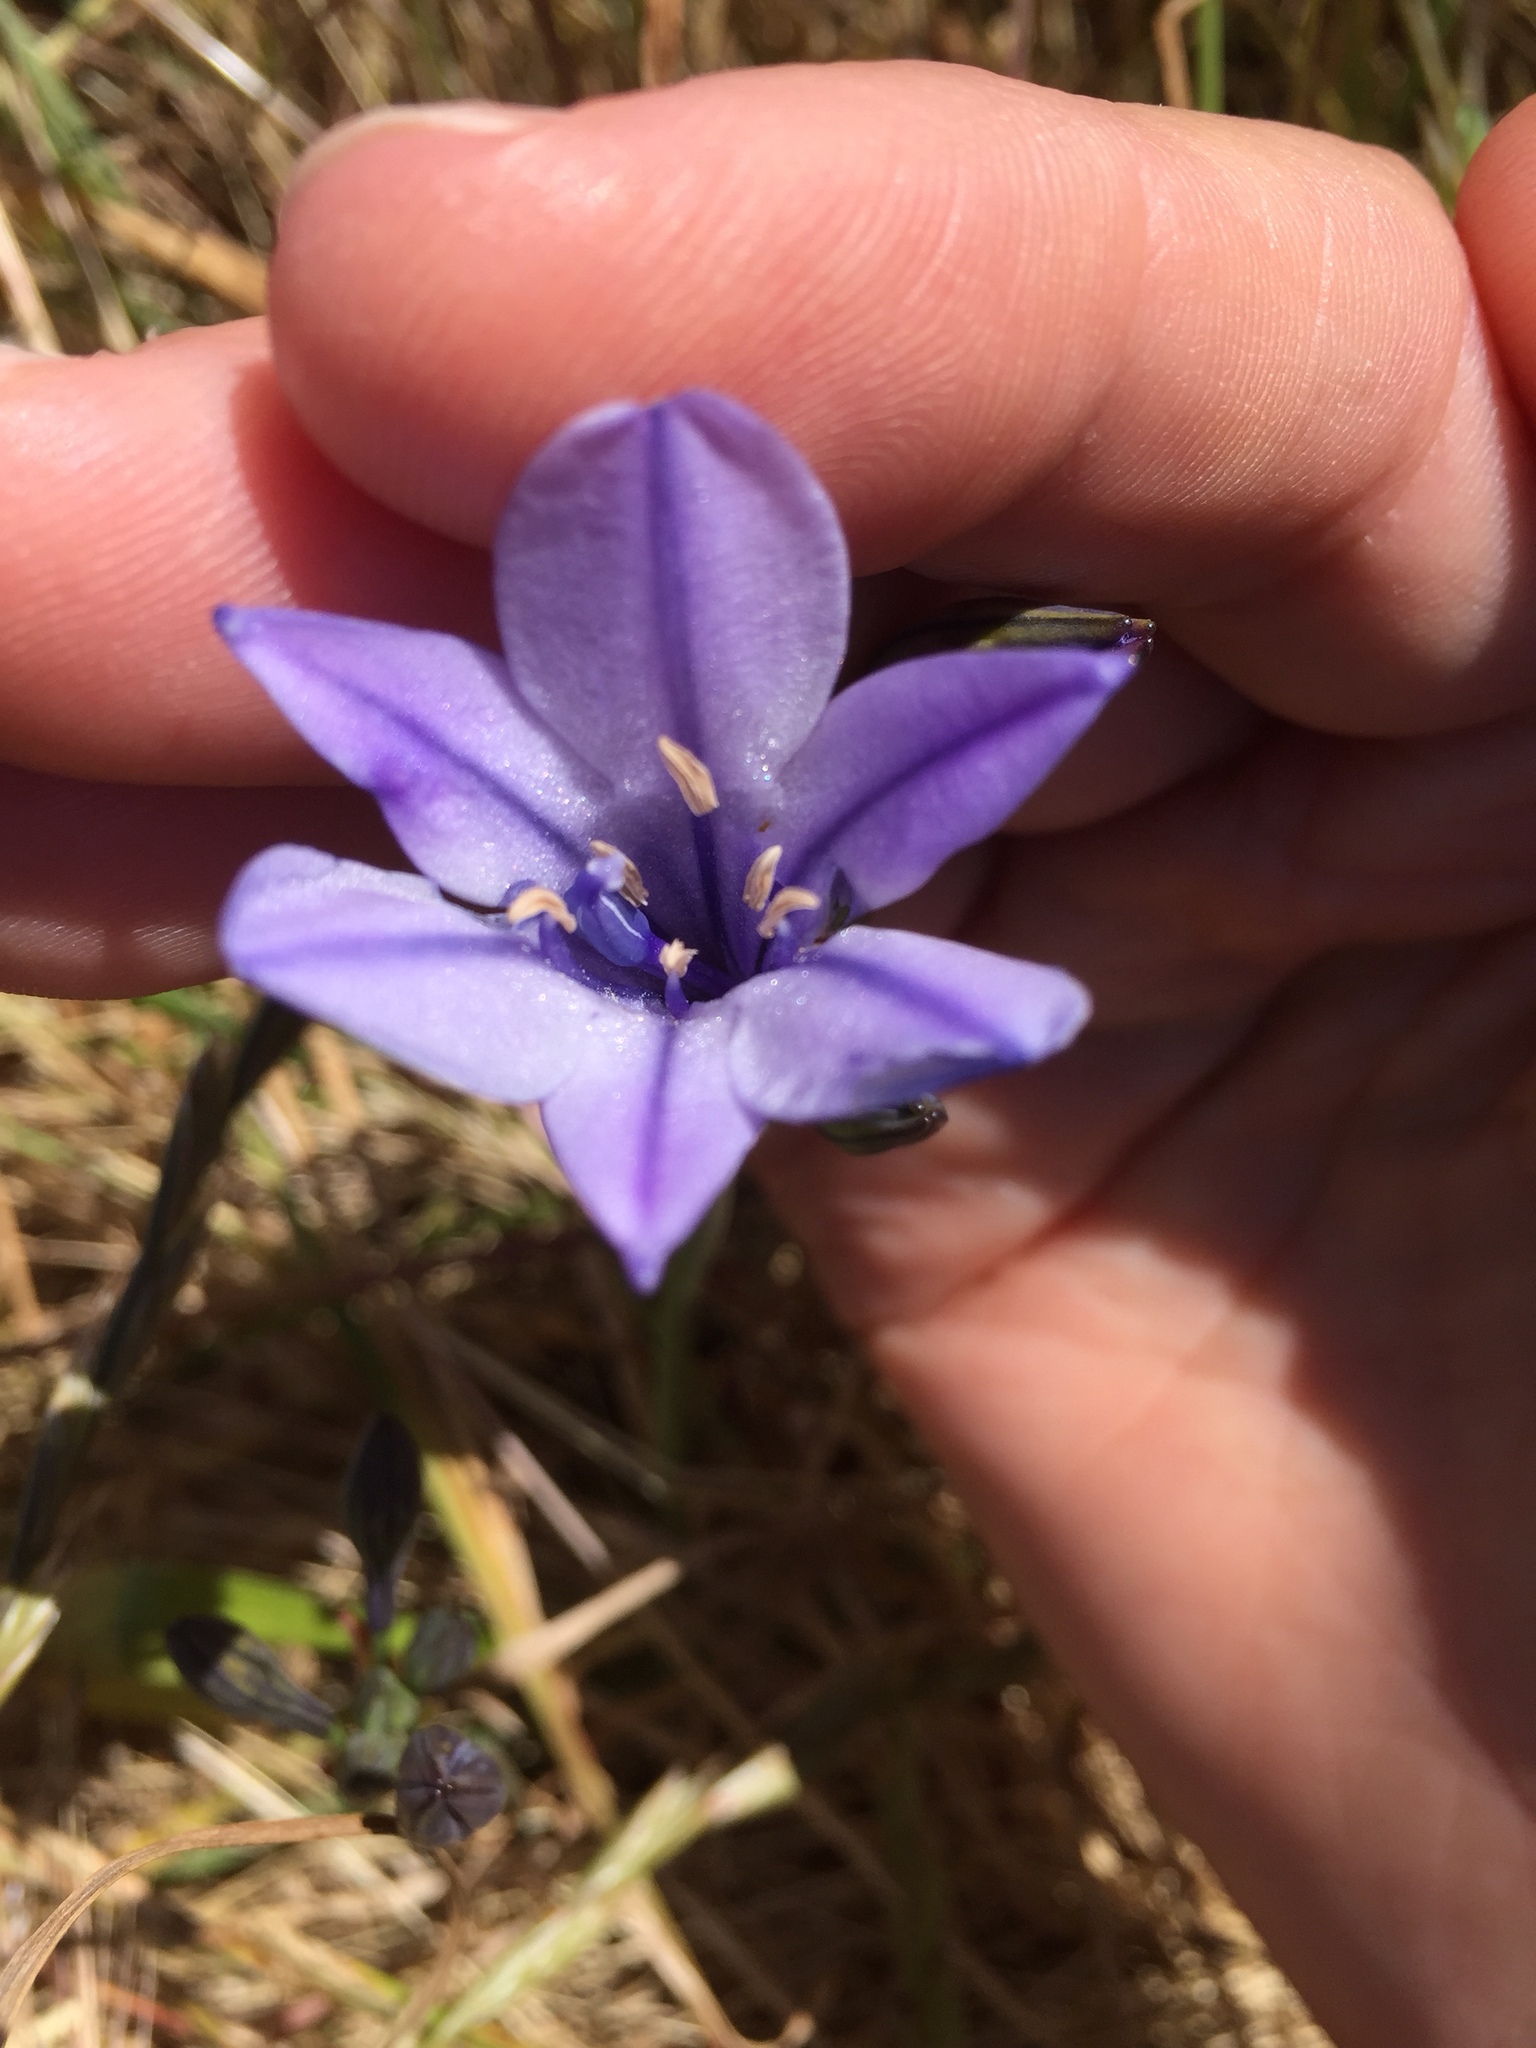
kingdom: Plantae
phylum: Tracheophyta
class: Liliopsida
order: Asparagales
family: Asparagaceae
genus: Triteleia
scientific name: Triteleia laxa
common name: Triplet-lily
